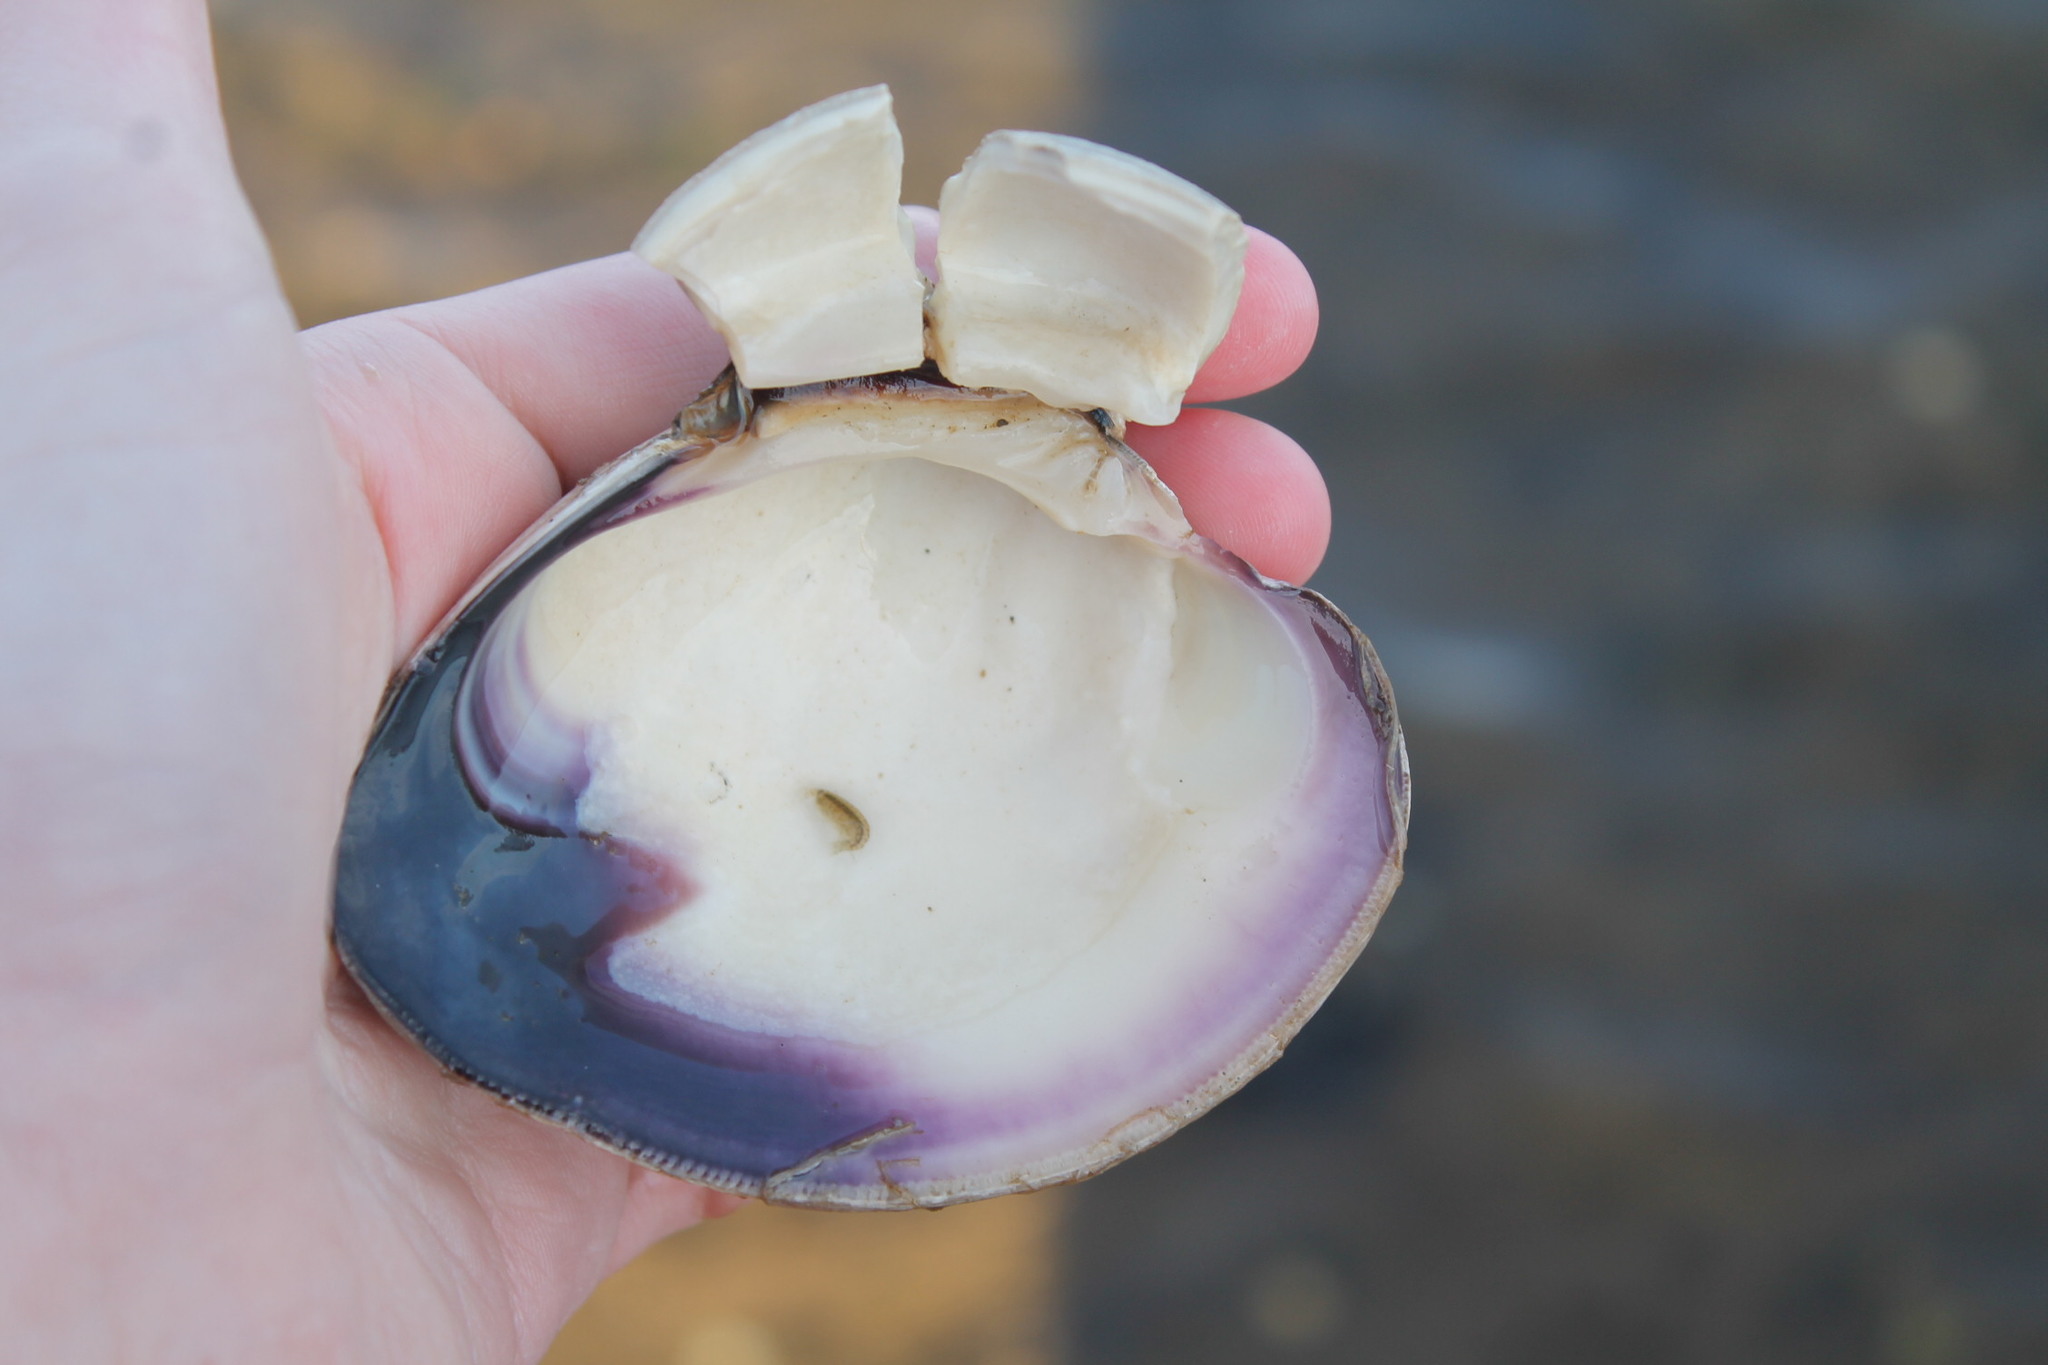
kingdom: Animalia
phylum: Mollusca
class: Bivalvia
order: Venerida
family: Veneridae
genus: Mercenaria
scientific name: Mercenaria mercenaria
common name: American hard-shelled clam
